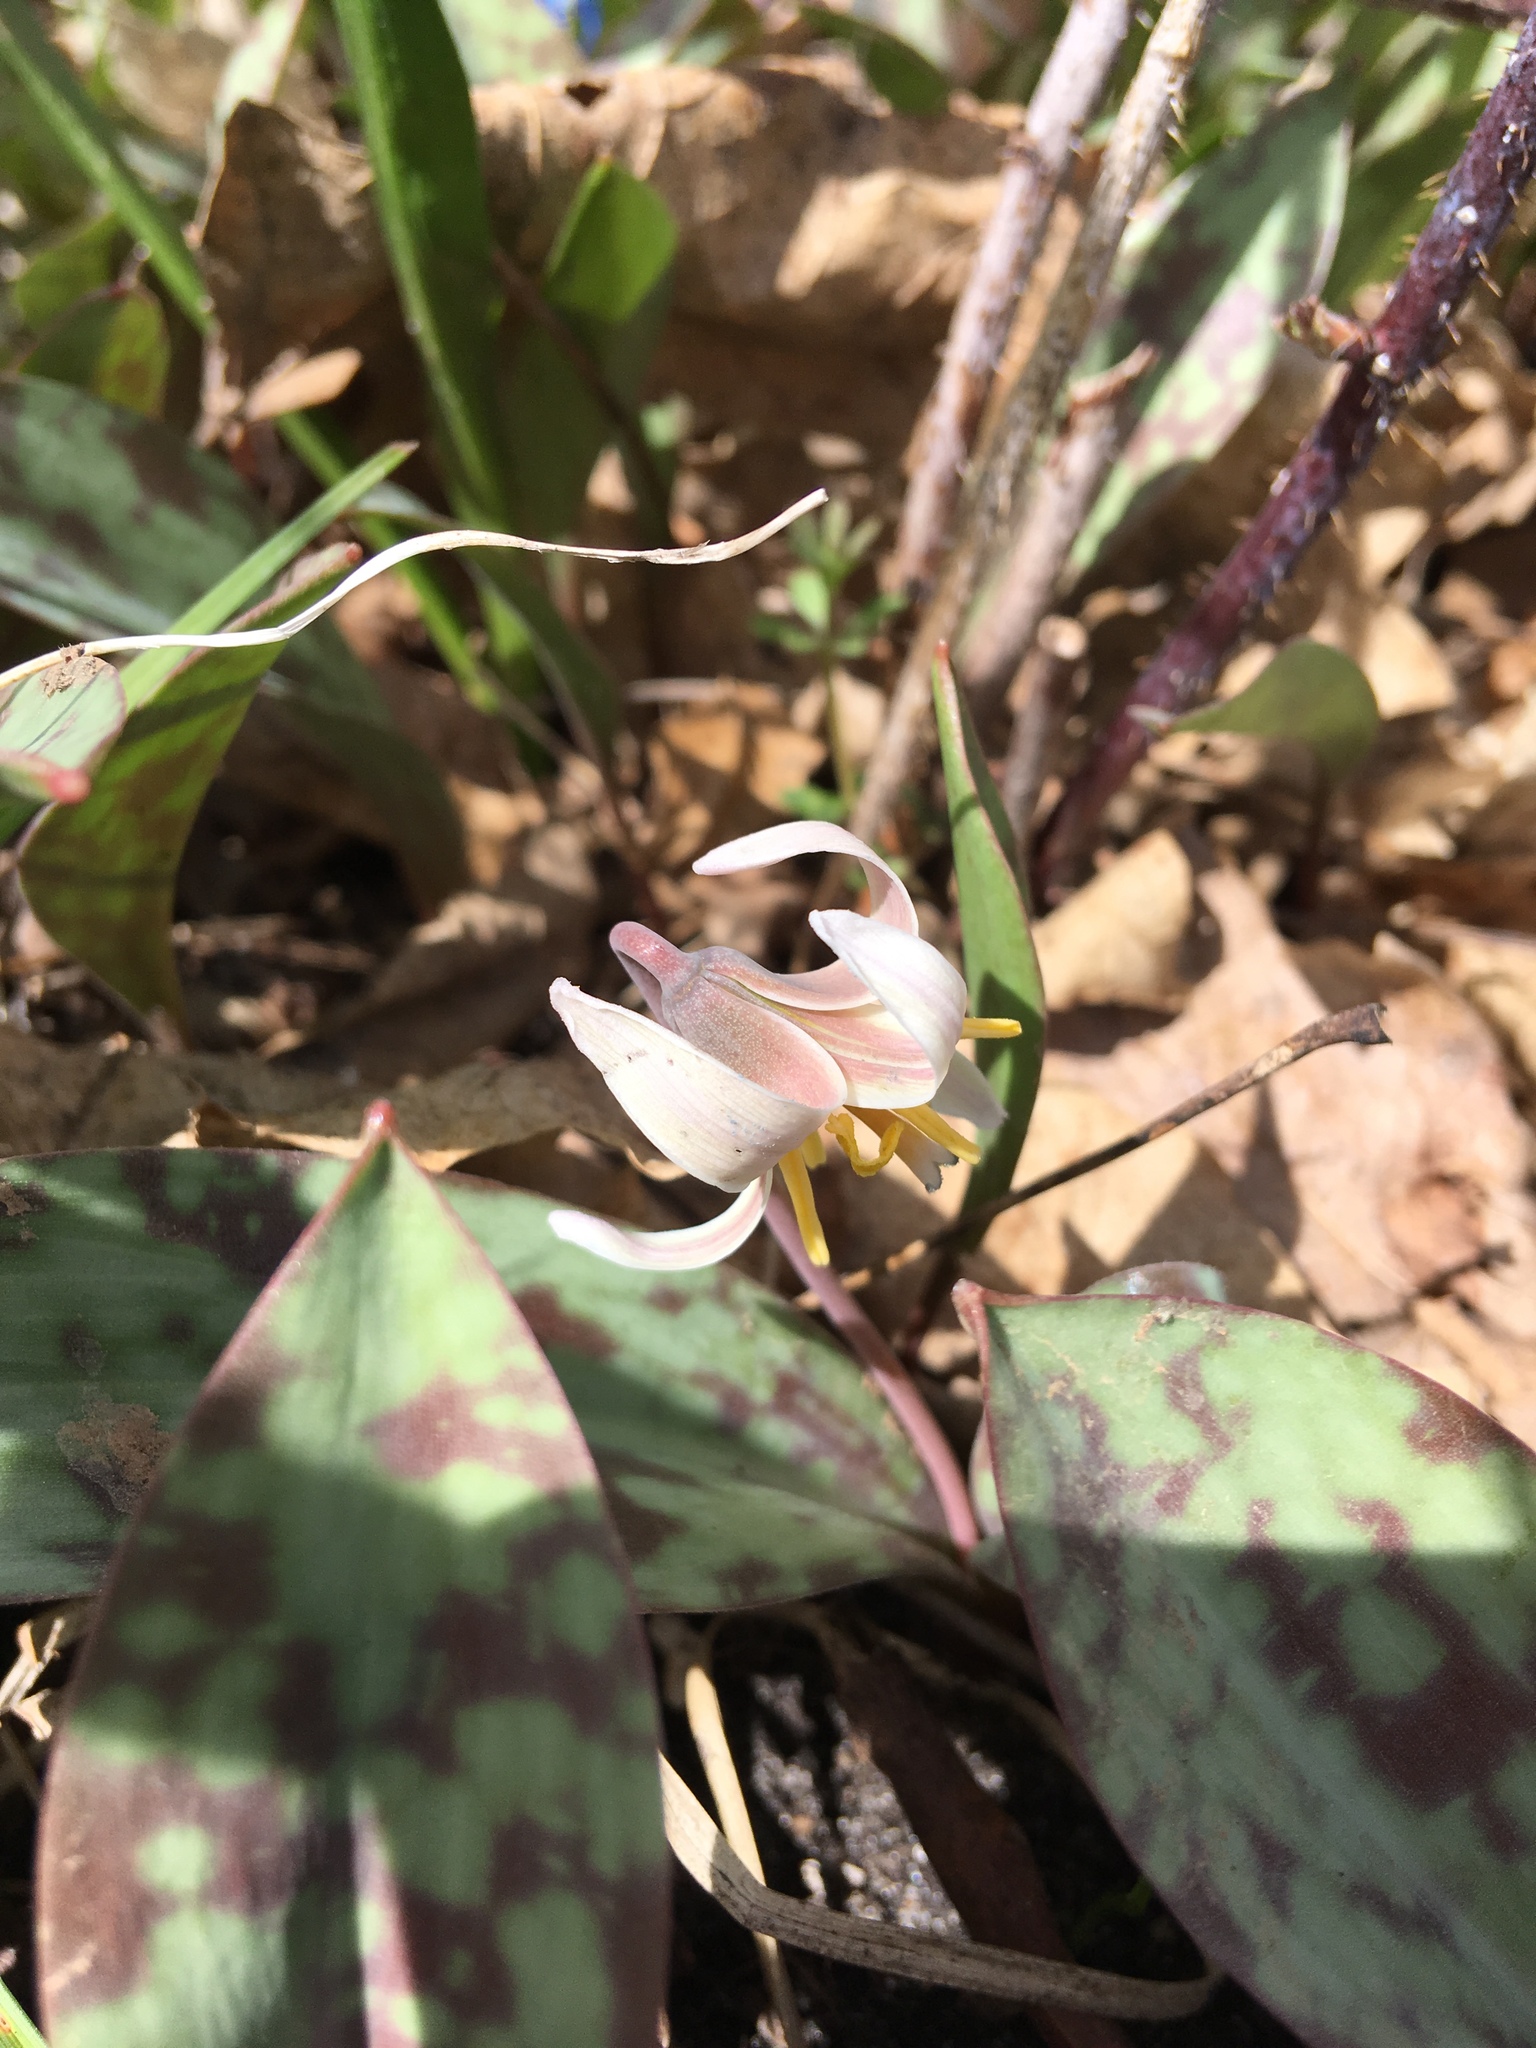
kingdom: Plantae
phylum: Tracheophyta
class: Liliopsida
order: Liliales
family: Liliaceae
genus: Erythronium
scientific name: Erythronium albidum
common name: White trout-lily
